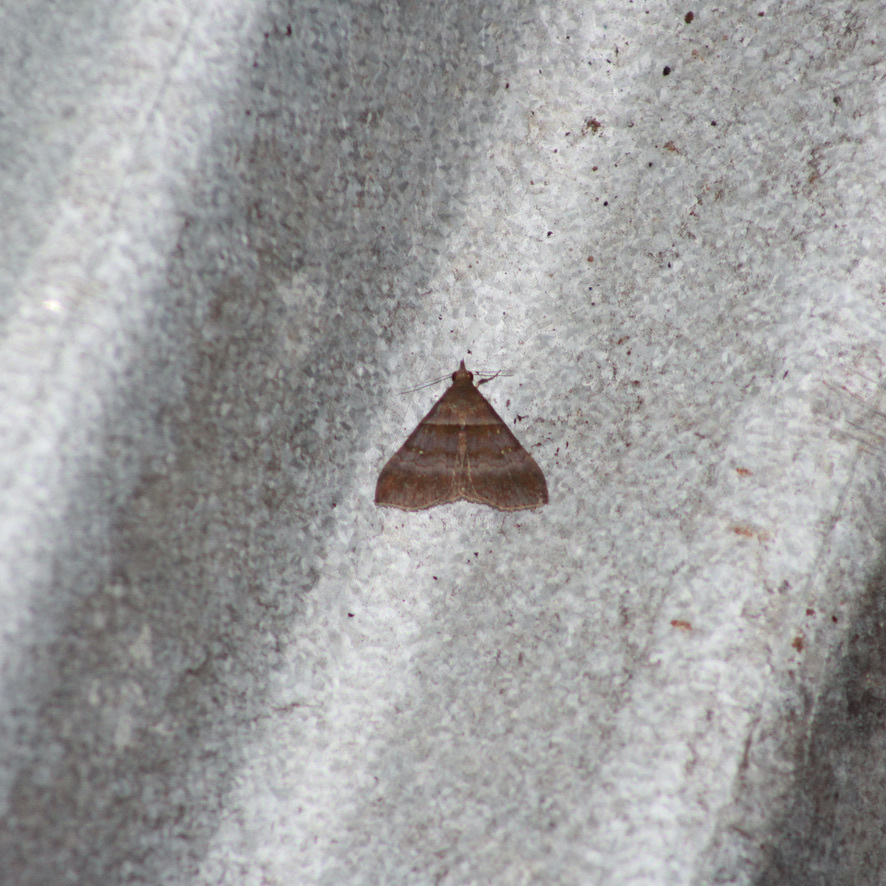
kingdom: Animalia
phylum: Arthropoda
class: Insecta
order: Lepidoptera
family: Erebidae
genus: Epitomiptera
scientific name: Epitomiptera purpurascens
